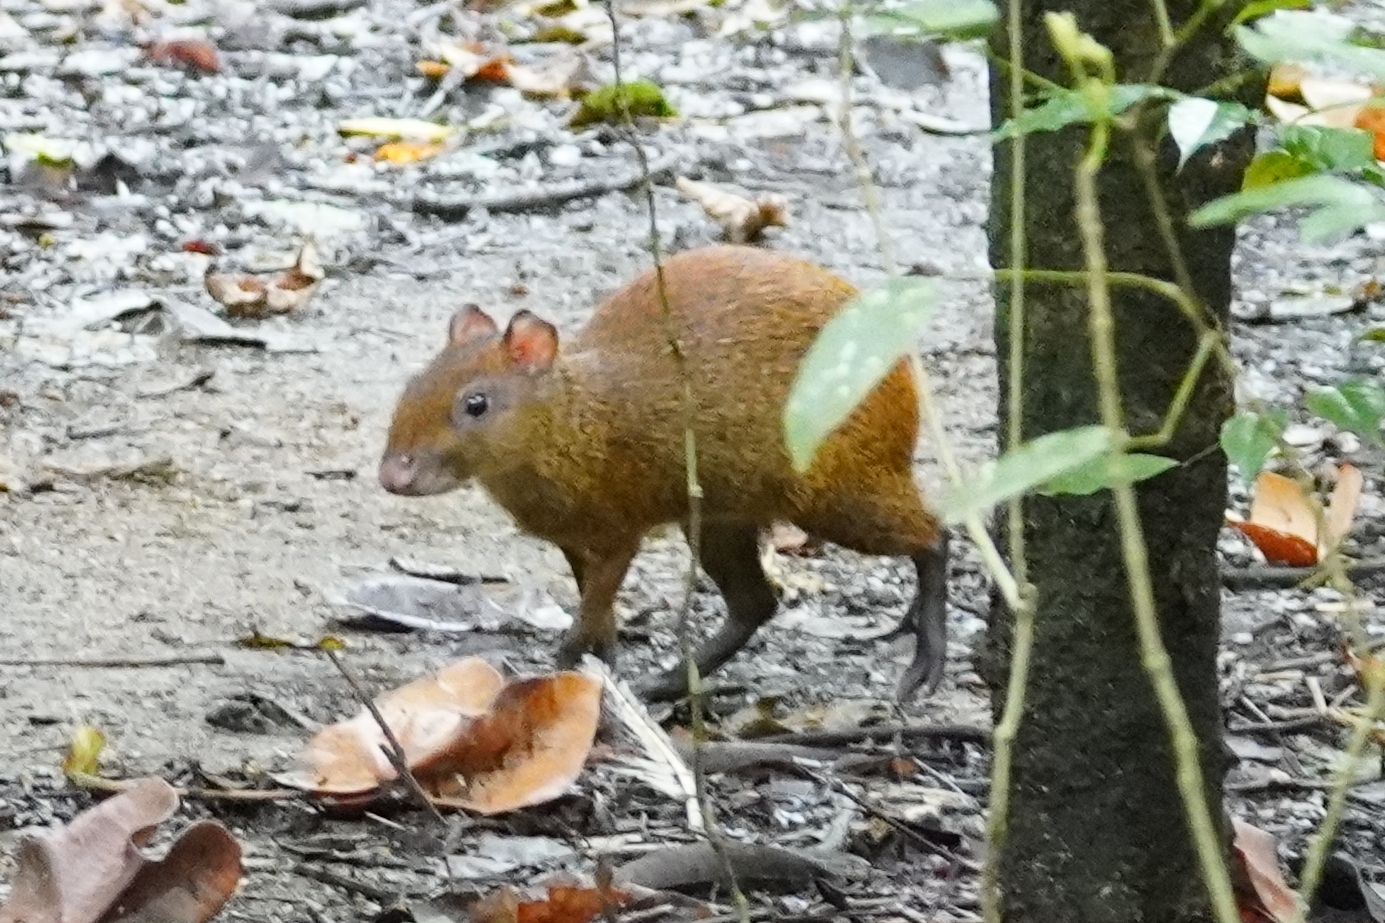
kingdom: Animalia
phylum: Chordata
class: Mammalia
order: Rodentia
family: Dasyproctidae
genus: Dasyprocta
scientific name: Dasyprocta punctata
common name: Central american agouti
